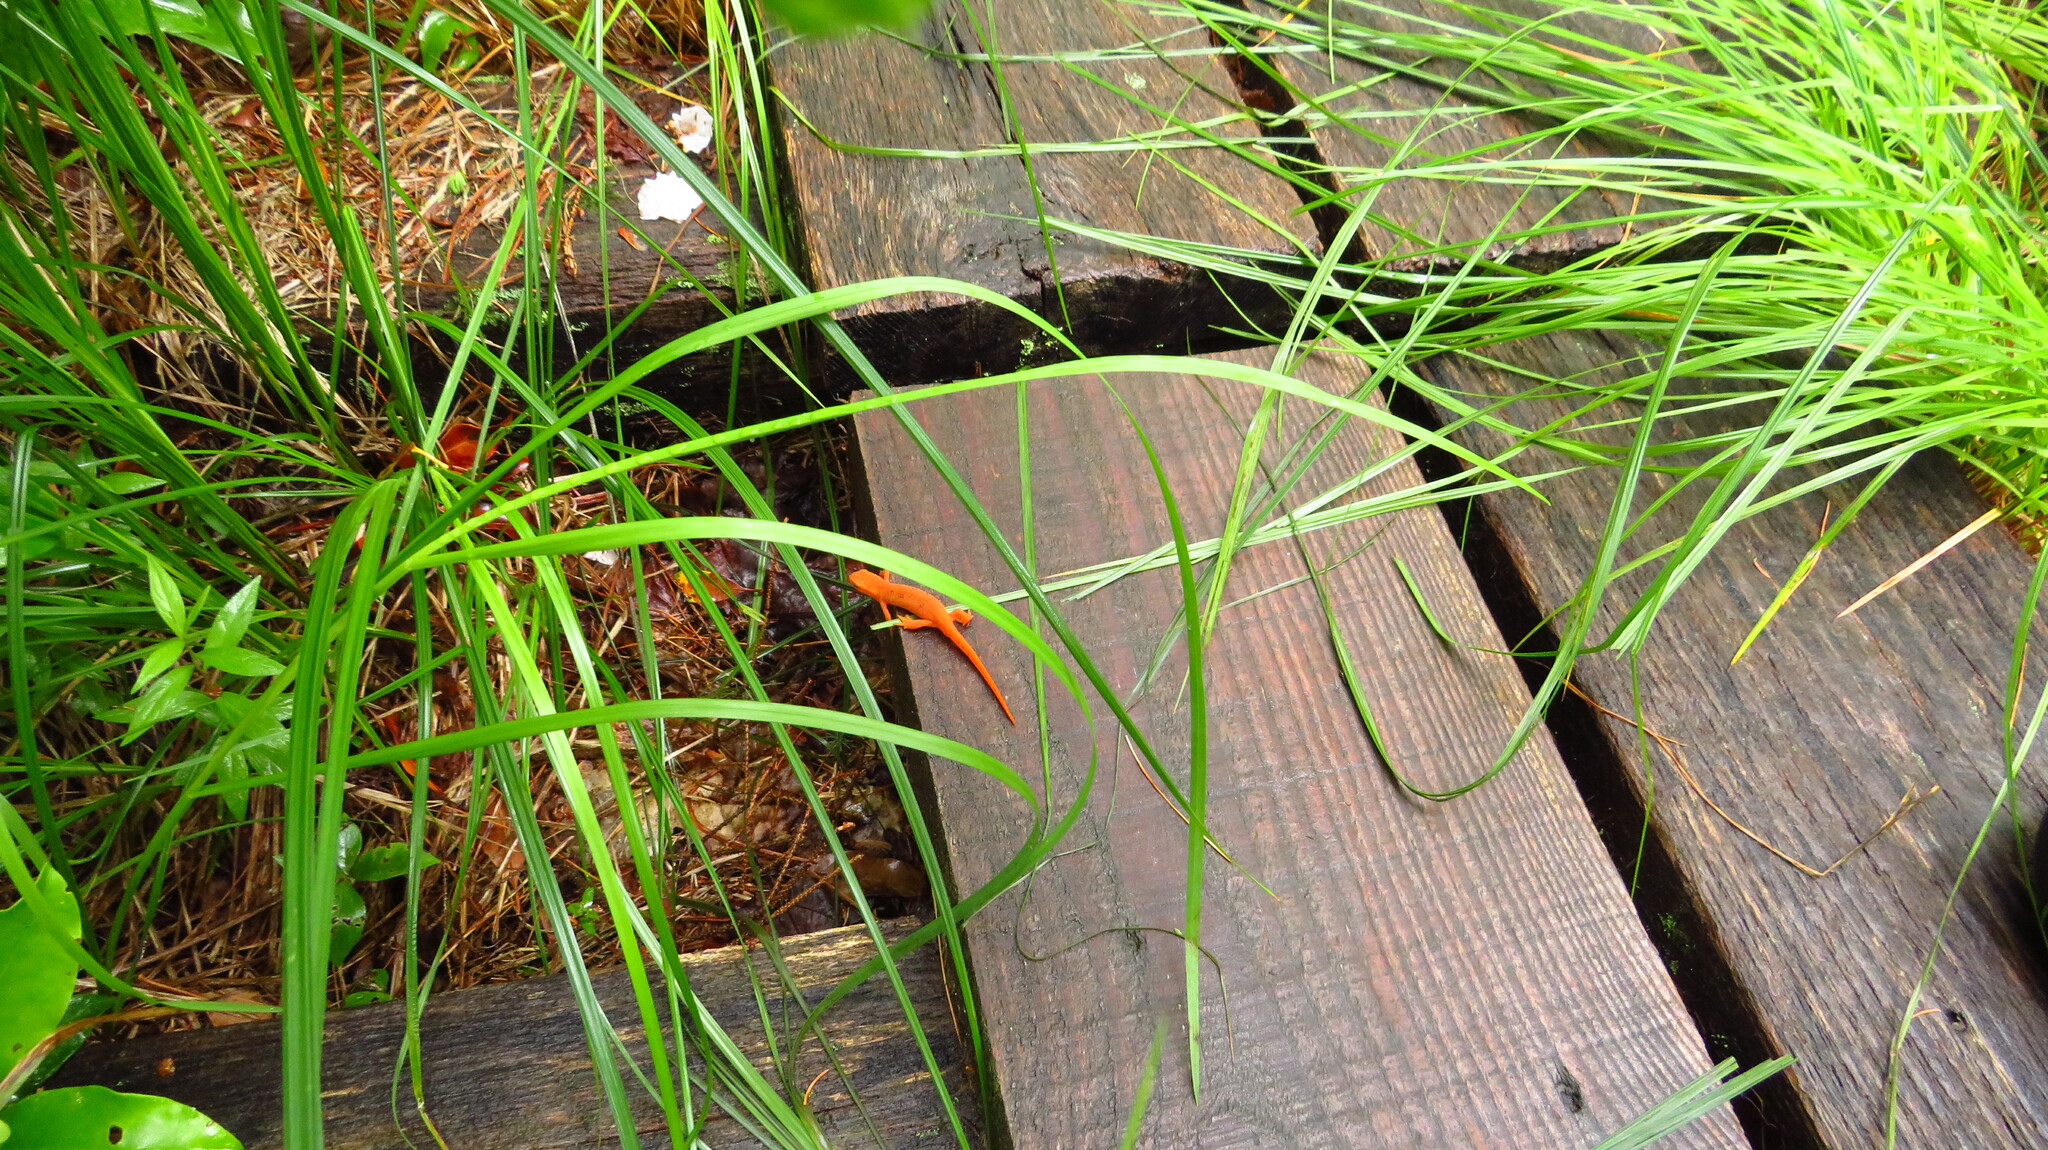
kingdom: Animalia
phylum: Chordata
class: Amphibia
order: Caudata
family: Salamandridae
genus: Notophthalmus
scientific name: Notophthalmus viridescens
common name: Eastern newt
